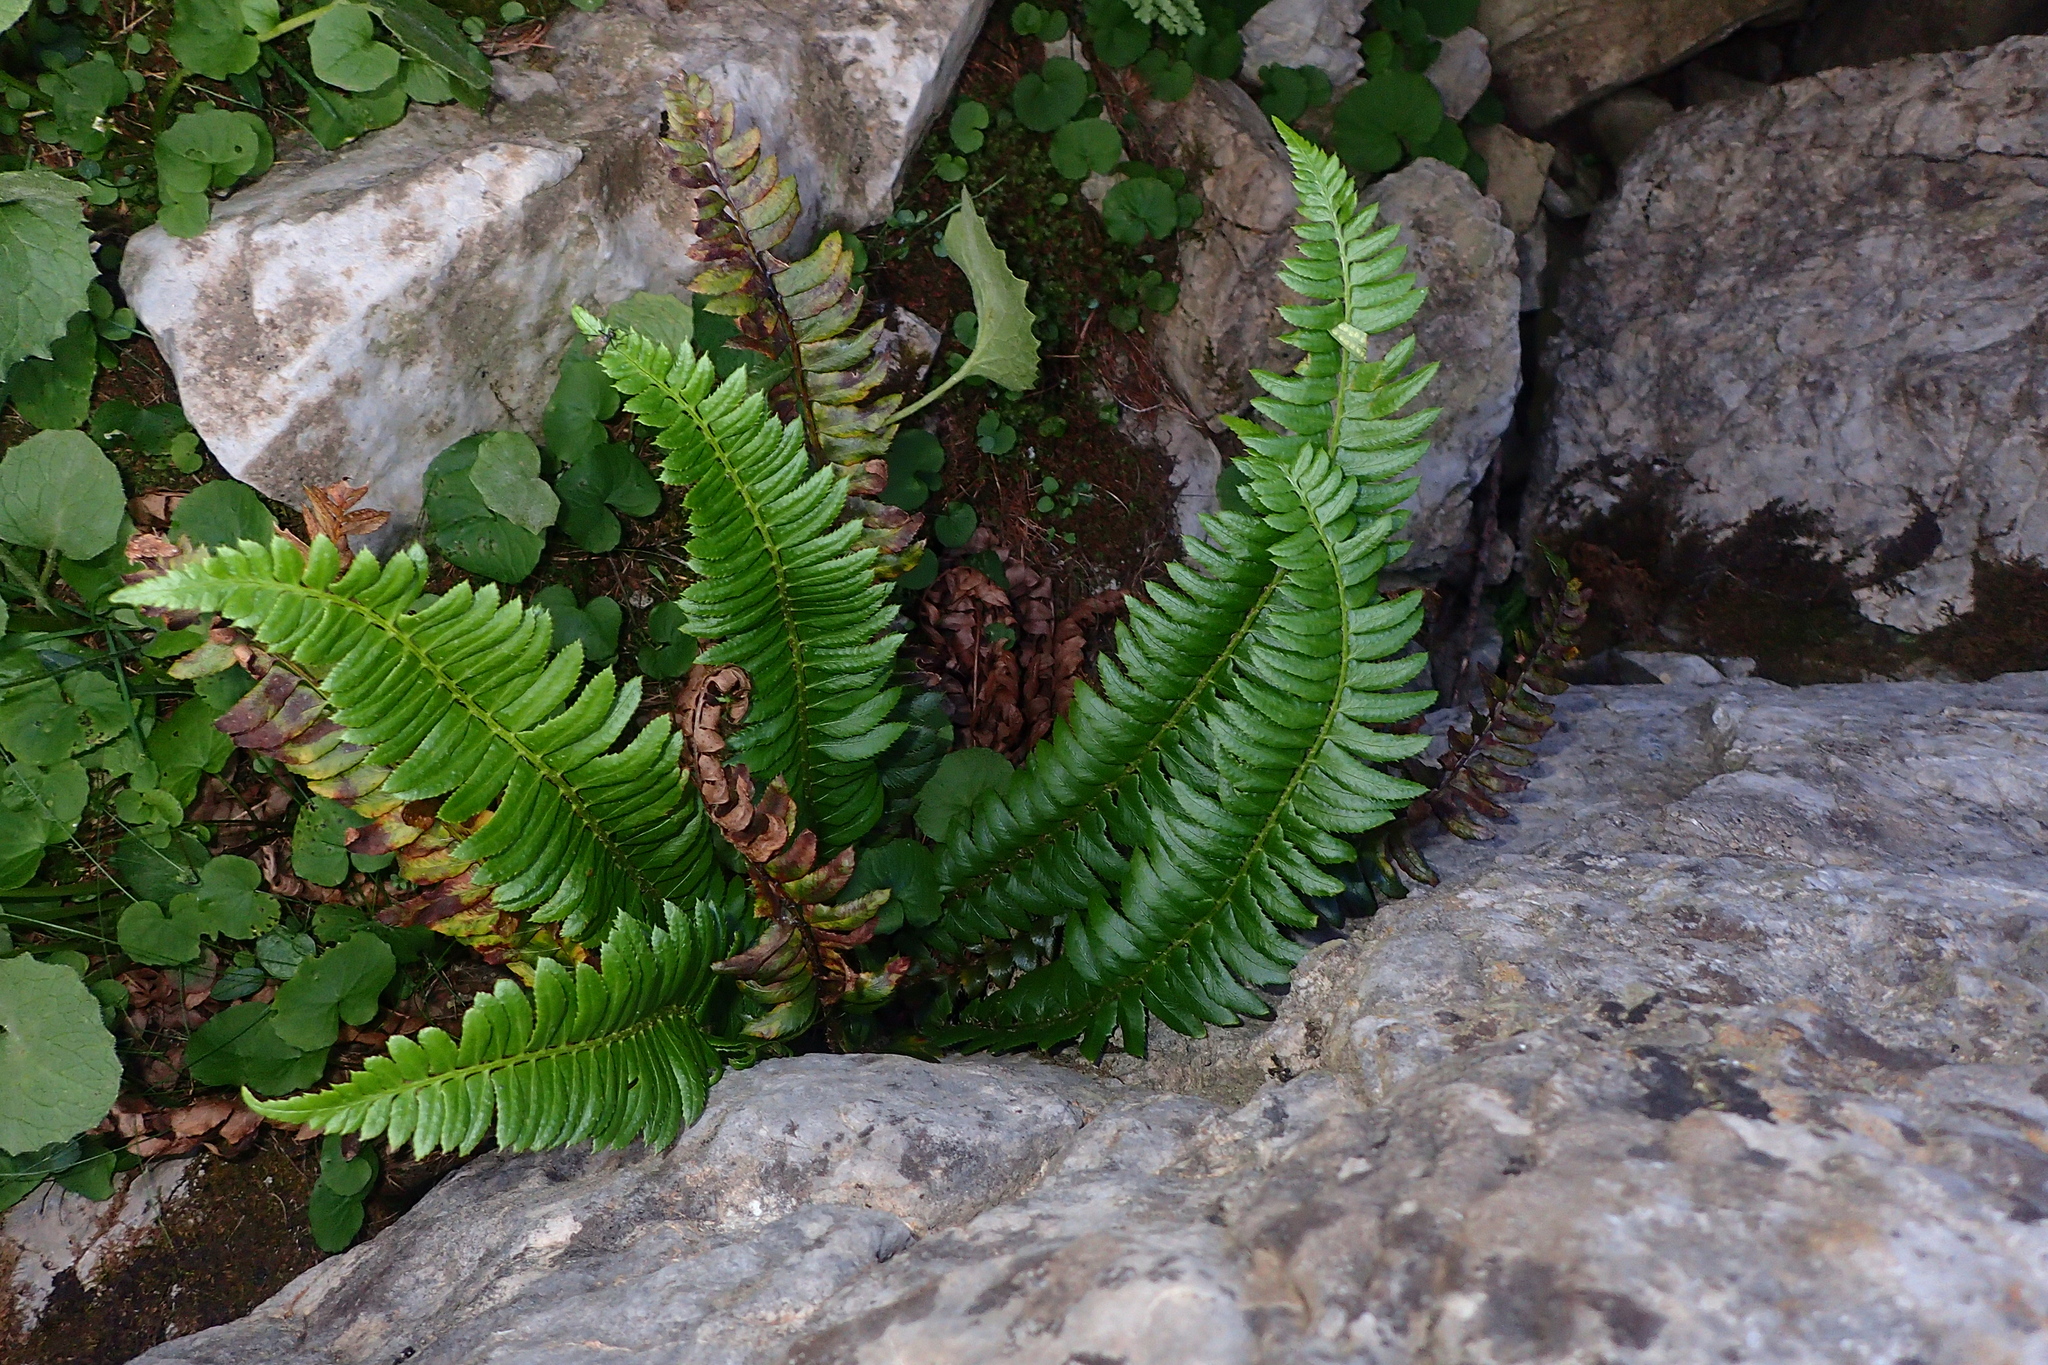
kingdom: Plantae
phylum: Tracheophyta
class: Polypodiopsida
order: Polypodiales
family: Dryopteridaceae
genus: Polystichum
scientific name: Polystichum lonchitis
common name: Holly fern
